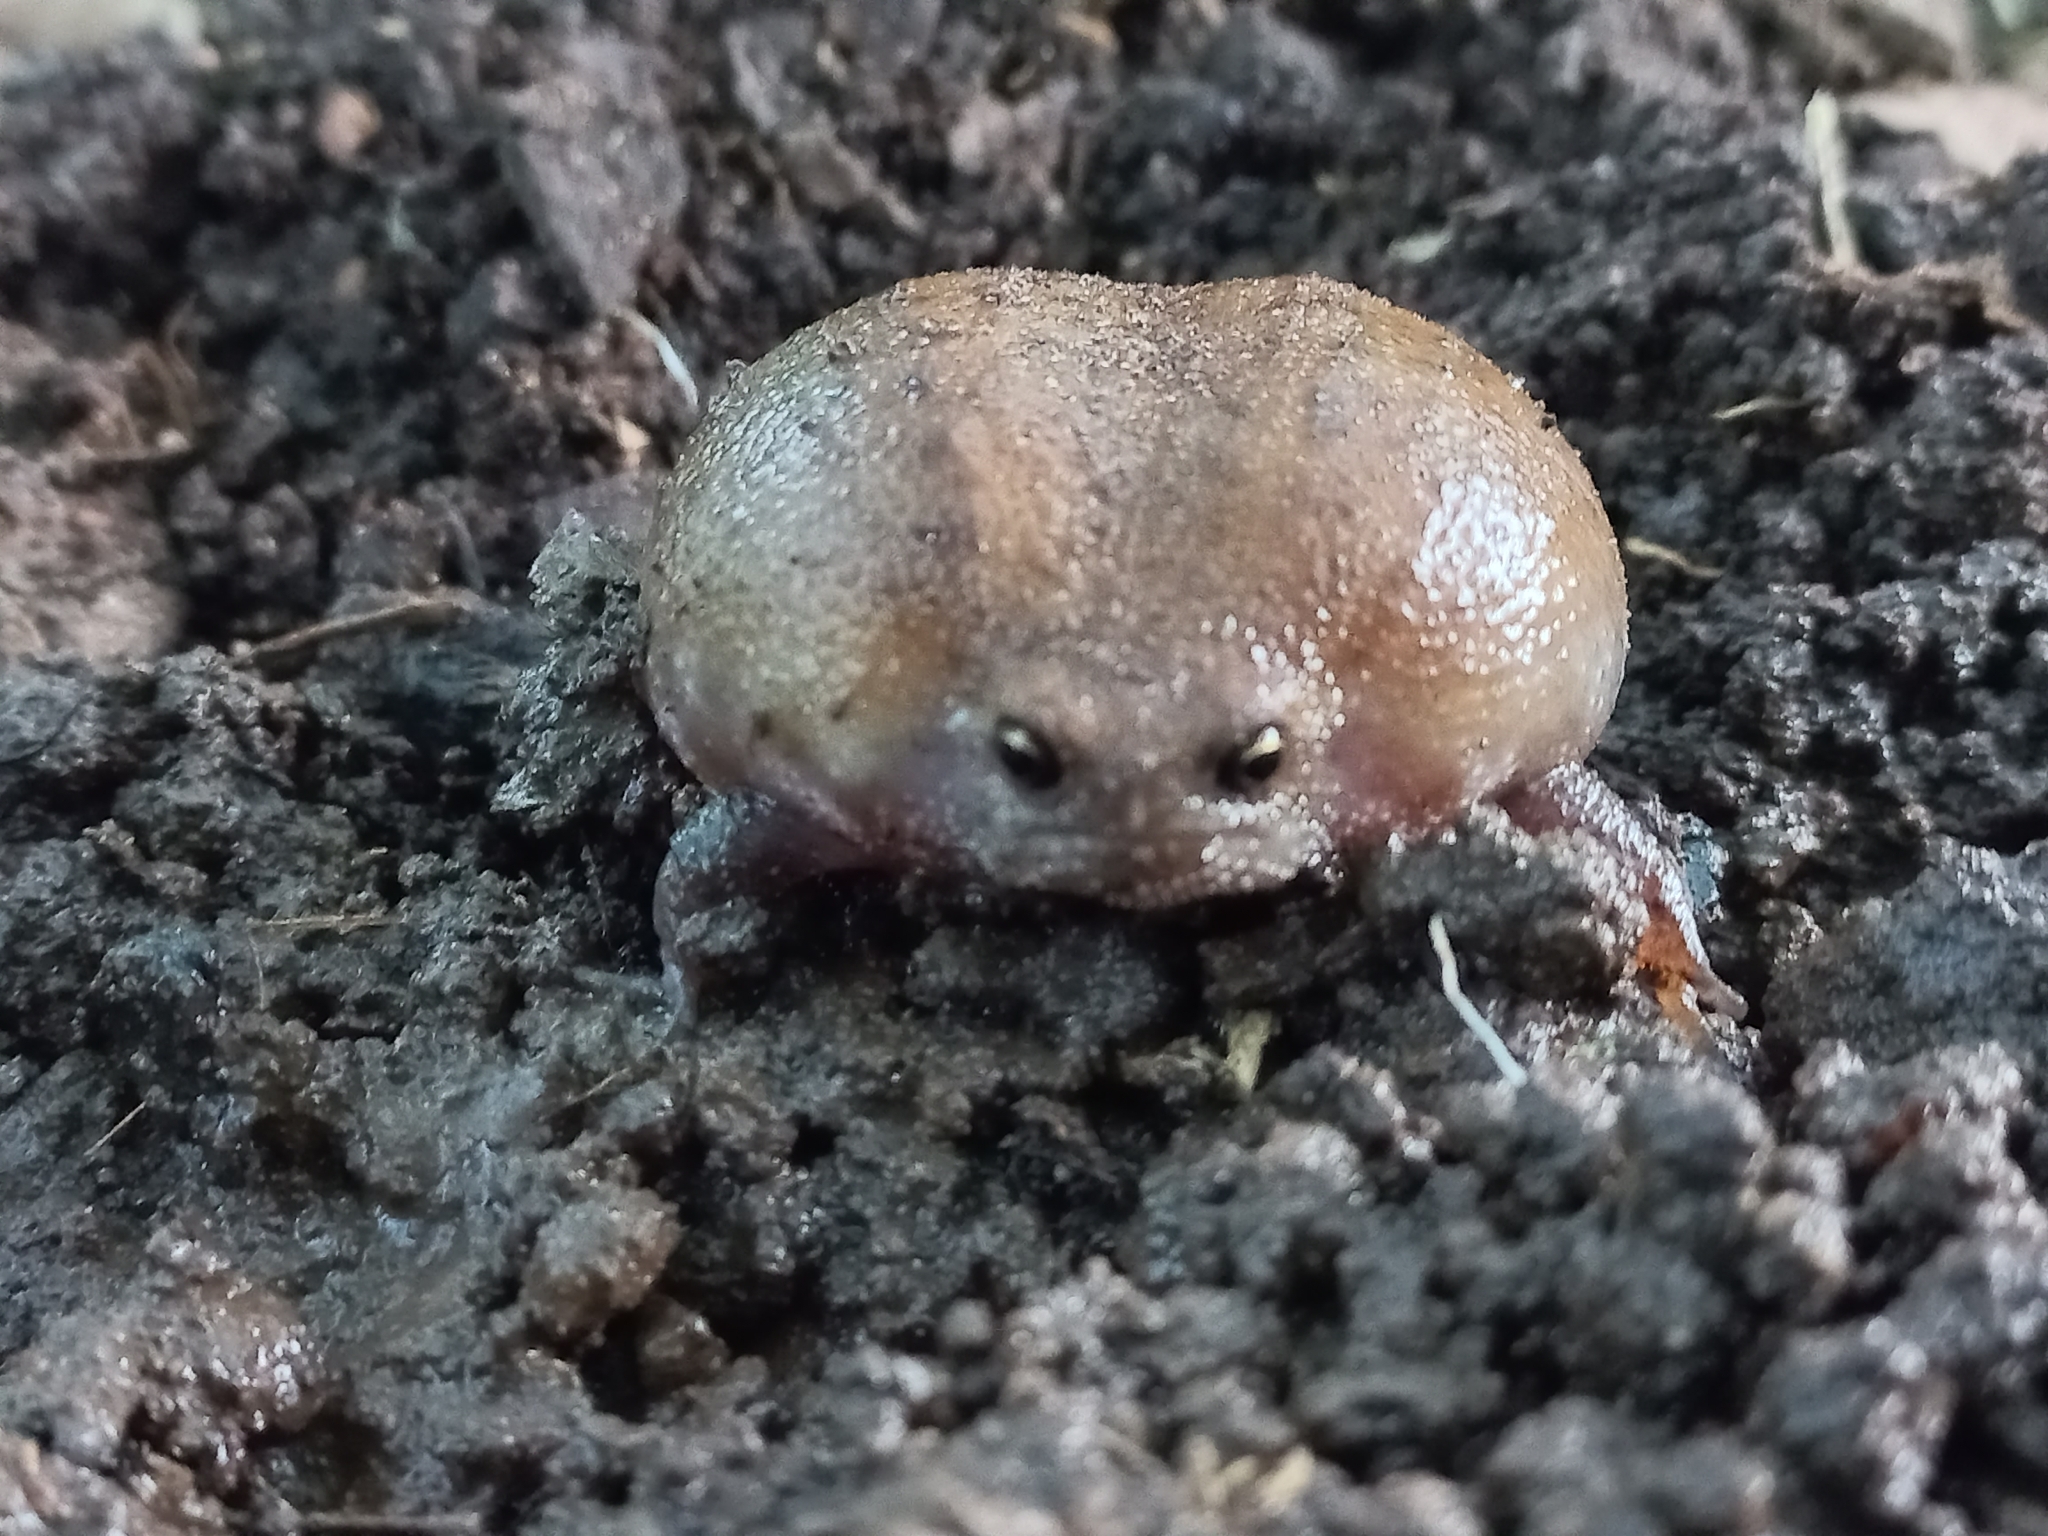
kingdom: Animalia
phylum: Chordata
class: Amphibia
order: Anura
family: Brevicipitidae
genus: Breviceps
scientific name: Breviceps verrucosus
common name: Plaintive rain frog
